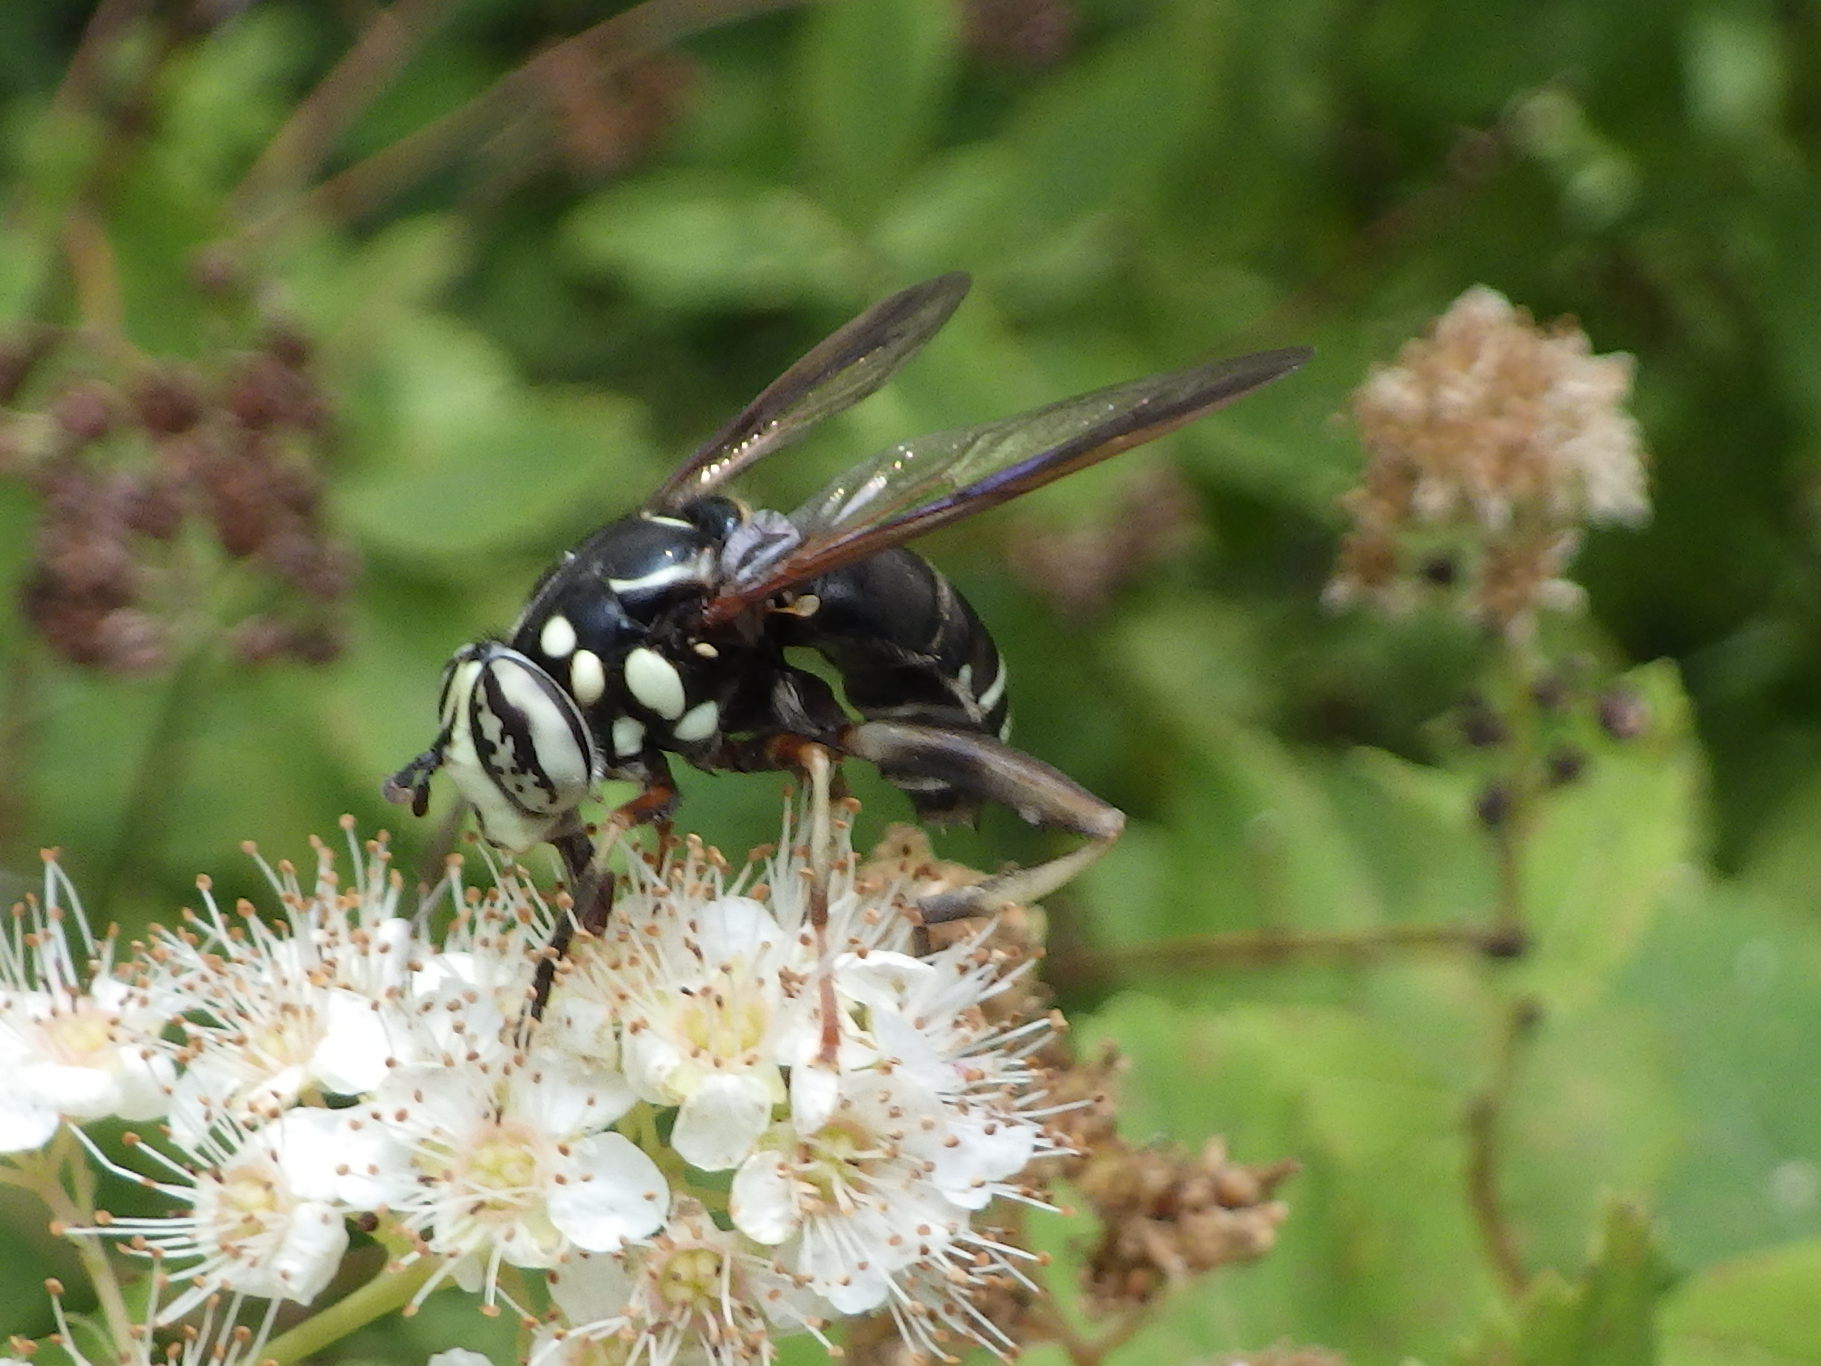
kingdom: Animalia
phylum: Arthropoda
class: Insecta
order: Diptera
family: Syrphidae
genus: Spilomyia
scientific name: Spilomyia fusca
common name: Bald-faced hornet fly
